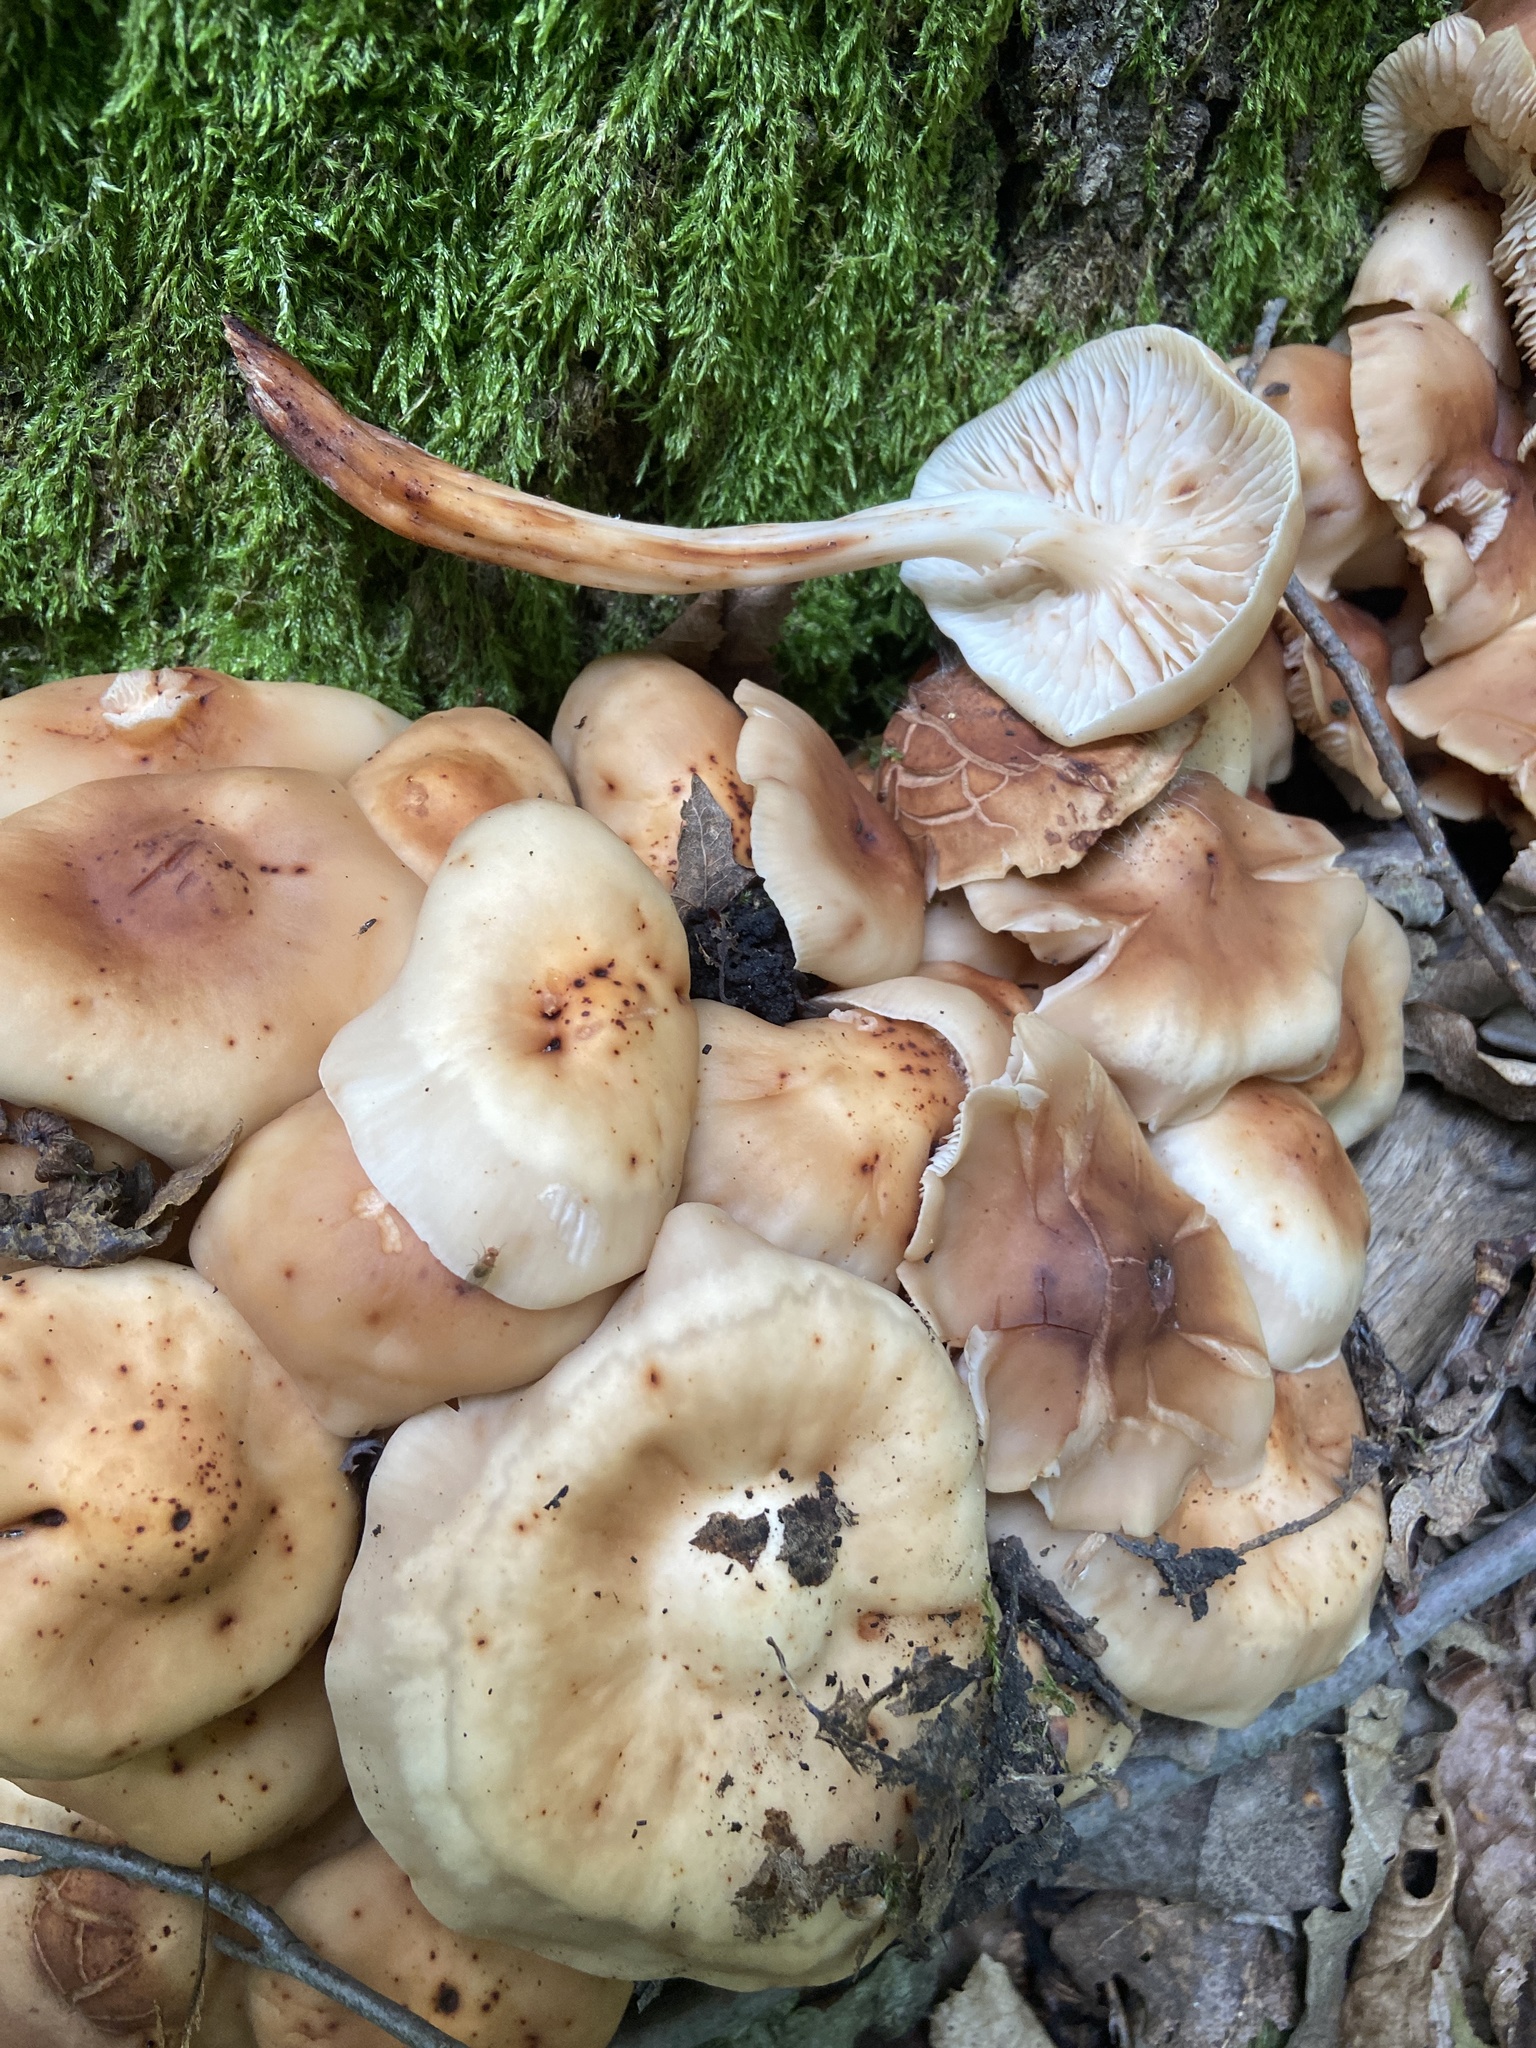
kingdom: Fungi
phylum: Basidiomycota
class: Agaricomycetes
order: Agaricales
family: Omphalotaceae
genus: Gymnopus
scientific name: Gymnopus fusipes
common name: Spindle shank
